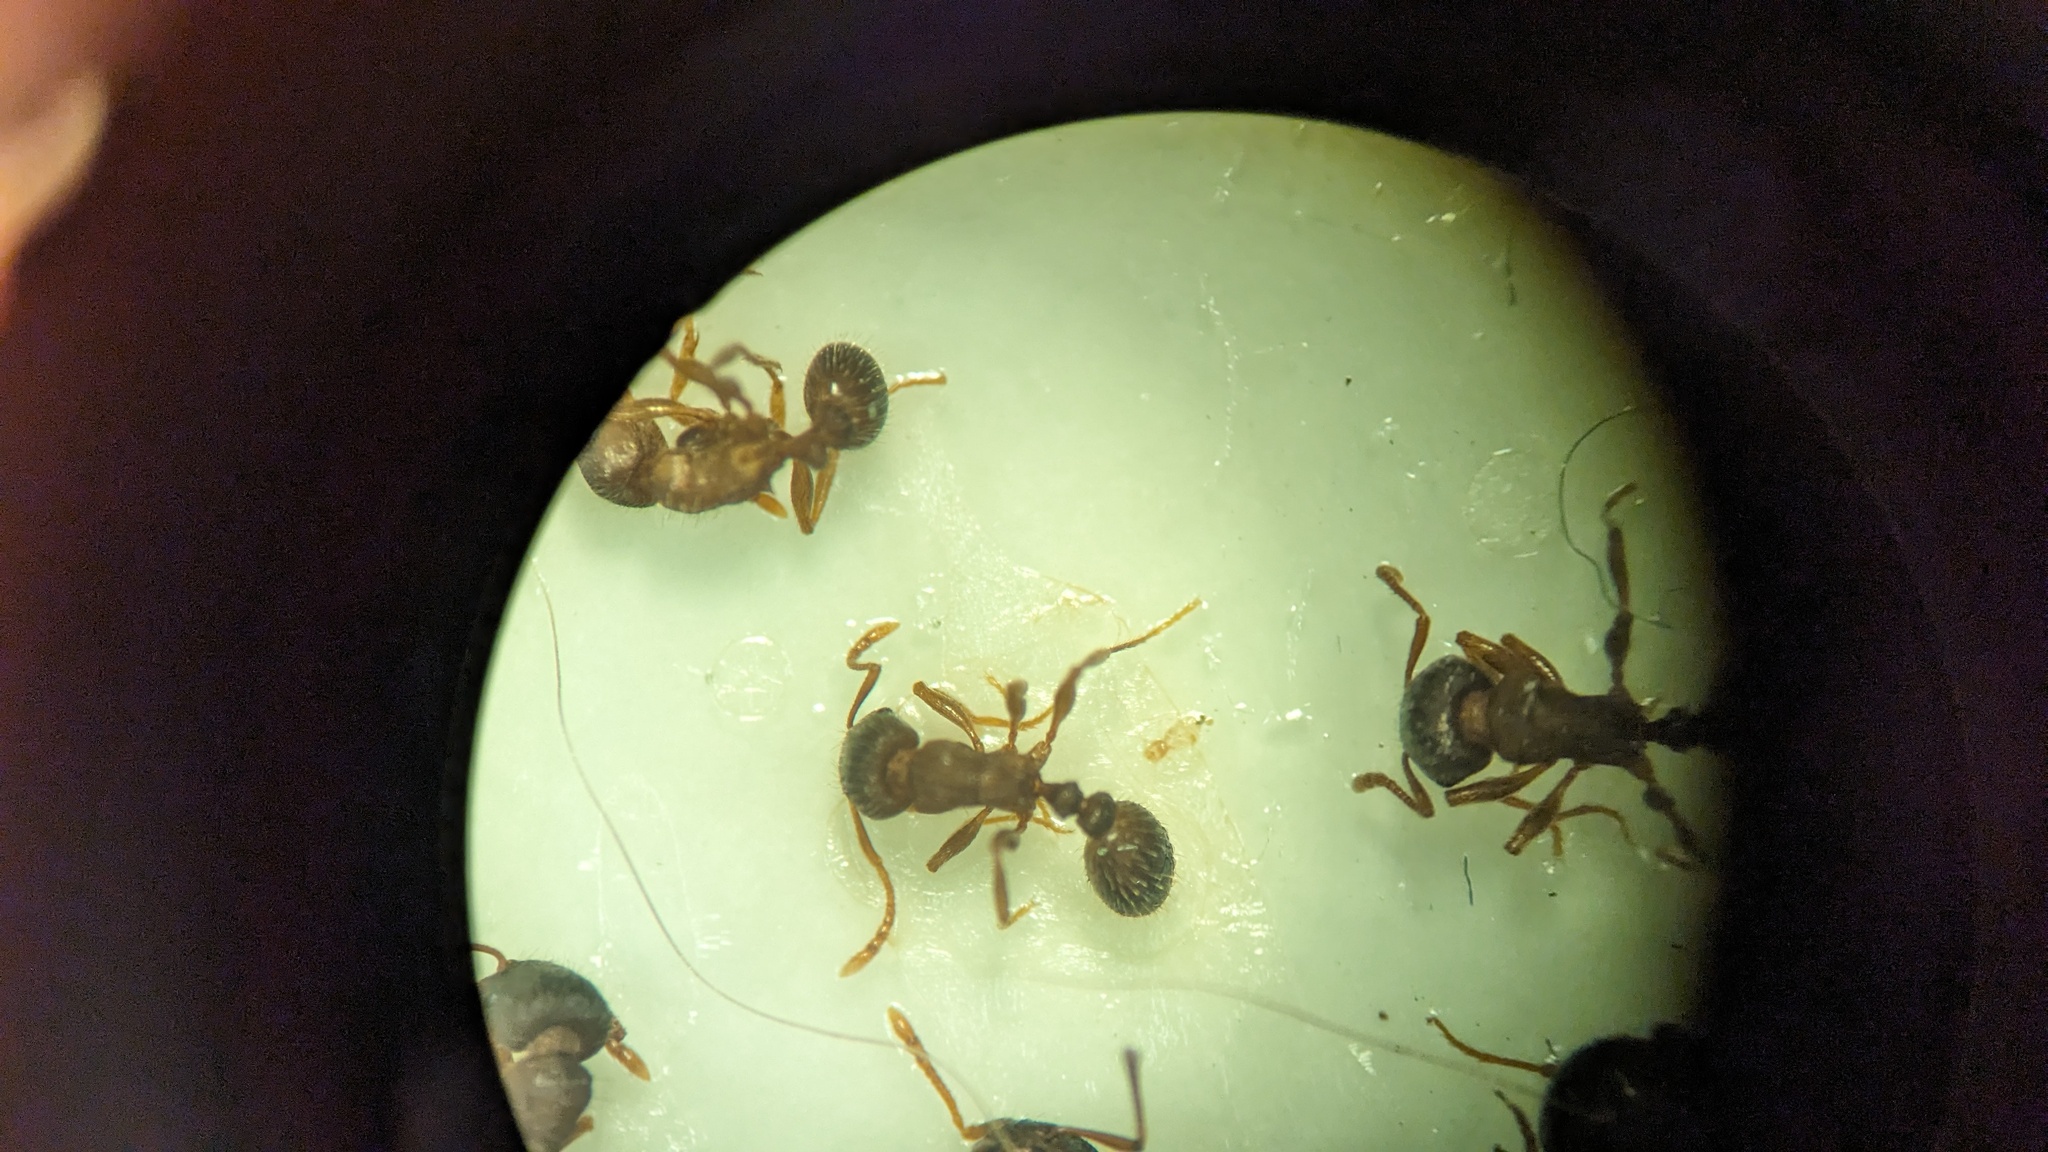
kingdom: Animalia
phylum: Arthropoda
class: Insecta
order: Hymenoptera
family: Formicidae
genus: Tetramorium
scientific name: Tetramorium immigrans
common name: Pavement ant
